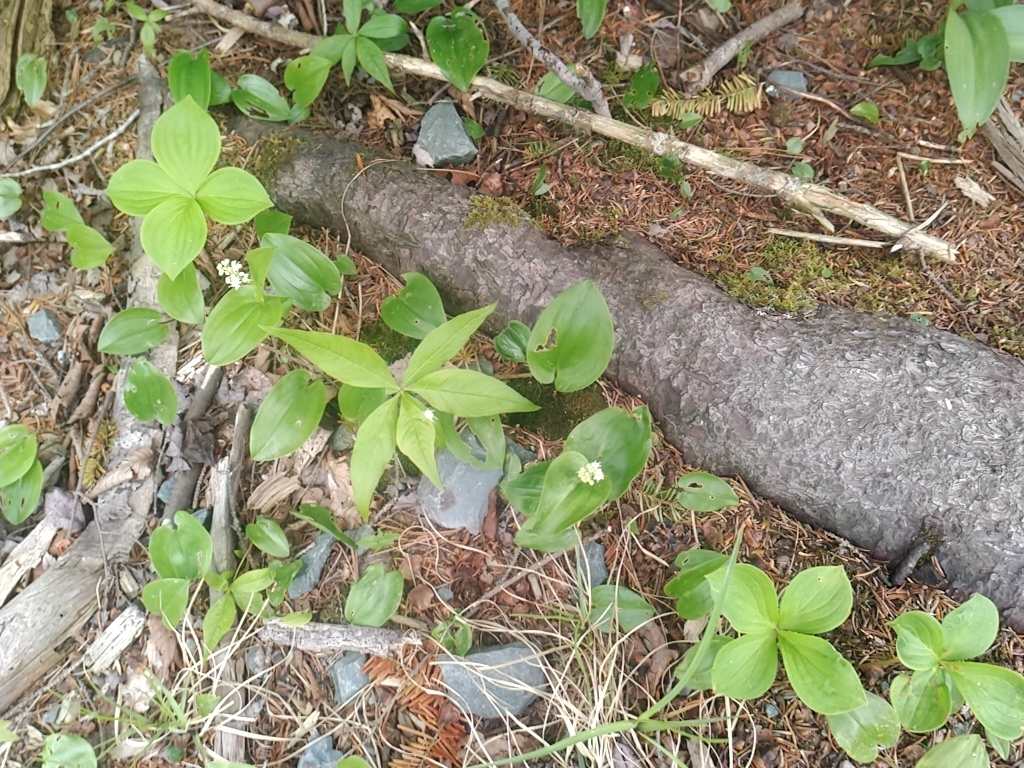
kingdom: Plantae
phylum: Tracheophyta
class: Liliopsida
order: Asparagales
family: Asparagaceae
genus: Maianthemum
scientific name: Maianthemum canadense
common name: False lily-of-the-valley
